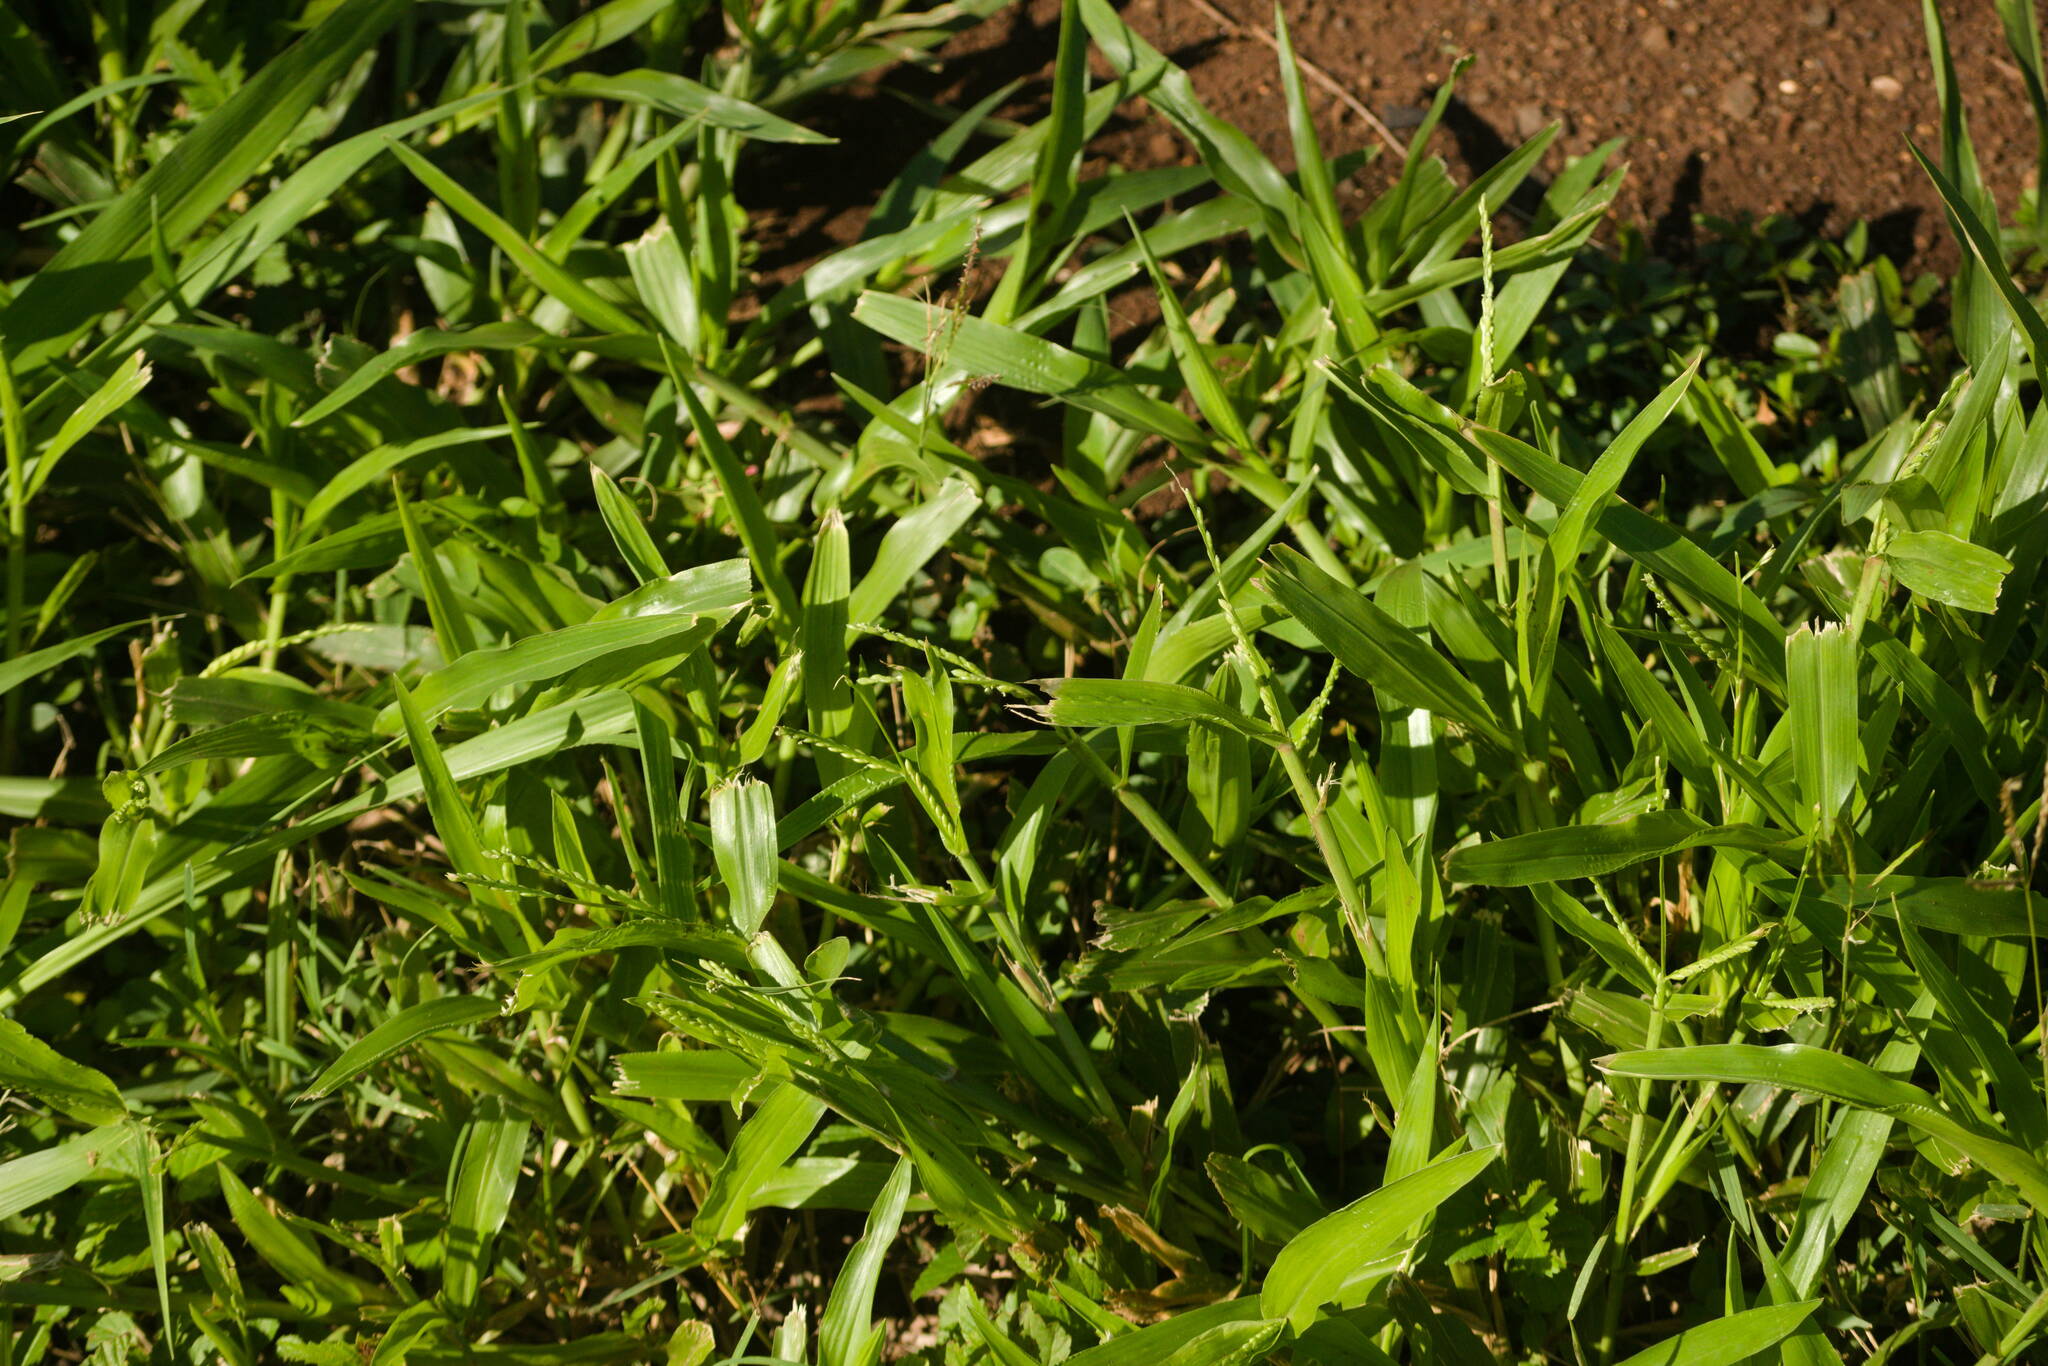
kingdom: Plantae
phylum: Tracheophyta
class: Liliopsida
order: Poales
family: Poaceae
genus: Urochloa
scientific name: Urochloa plantaginea
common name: Plantain signalgrass
